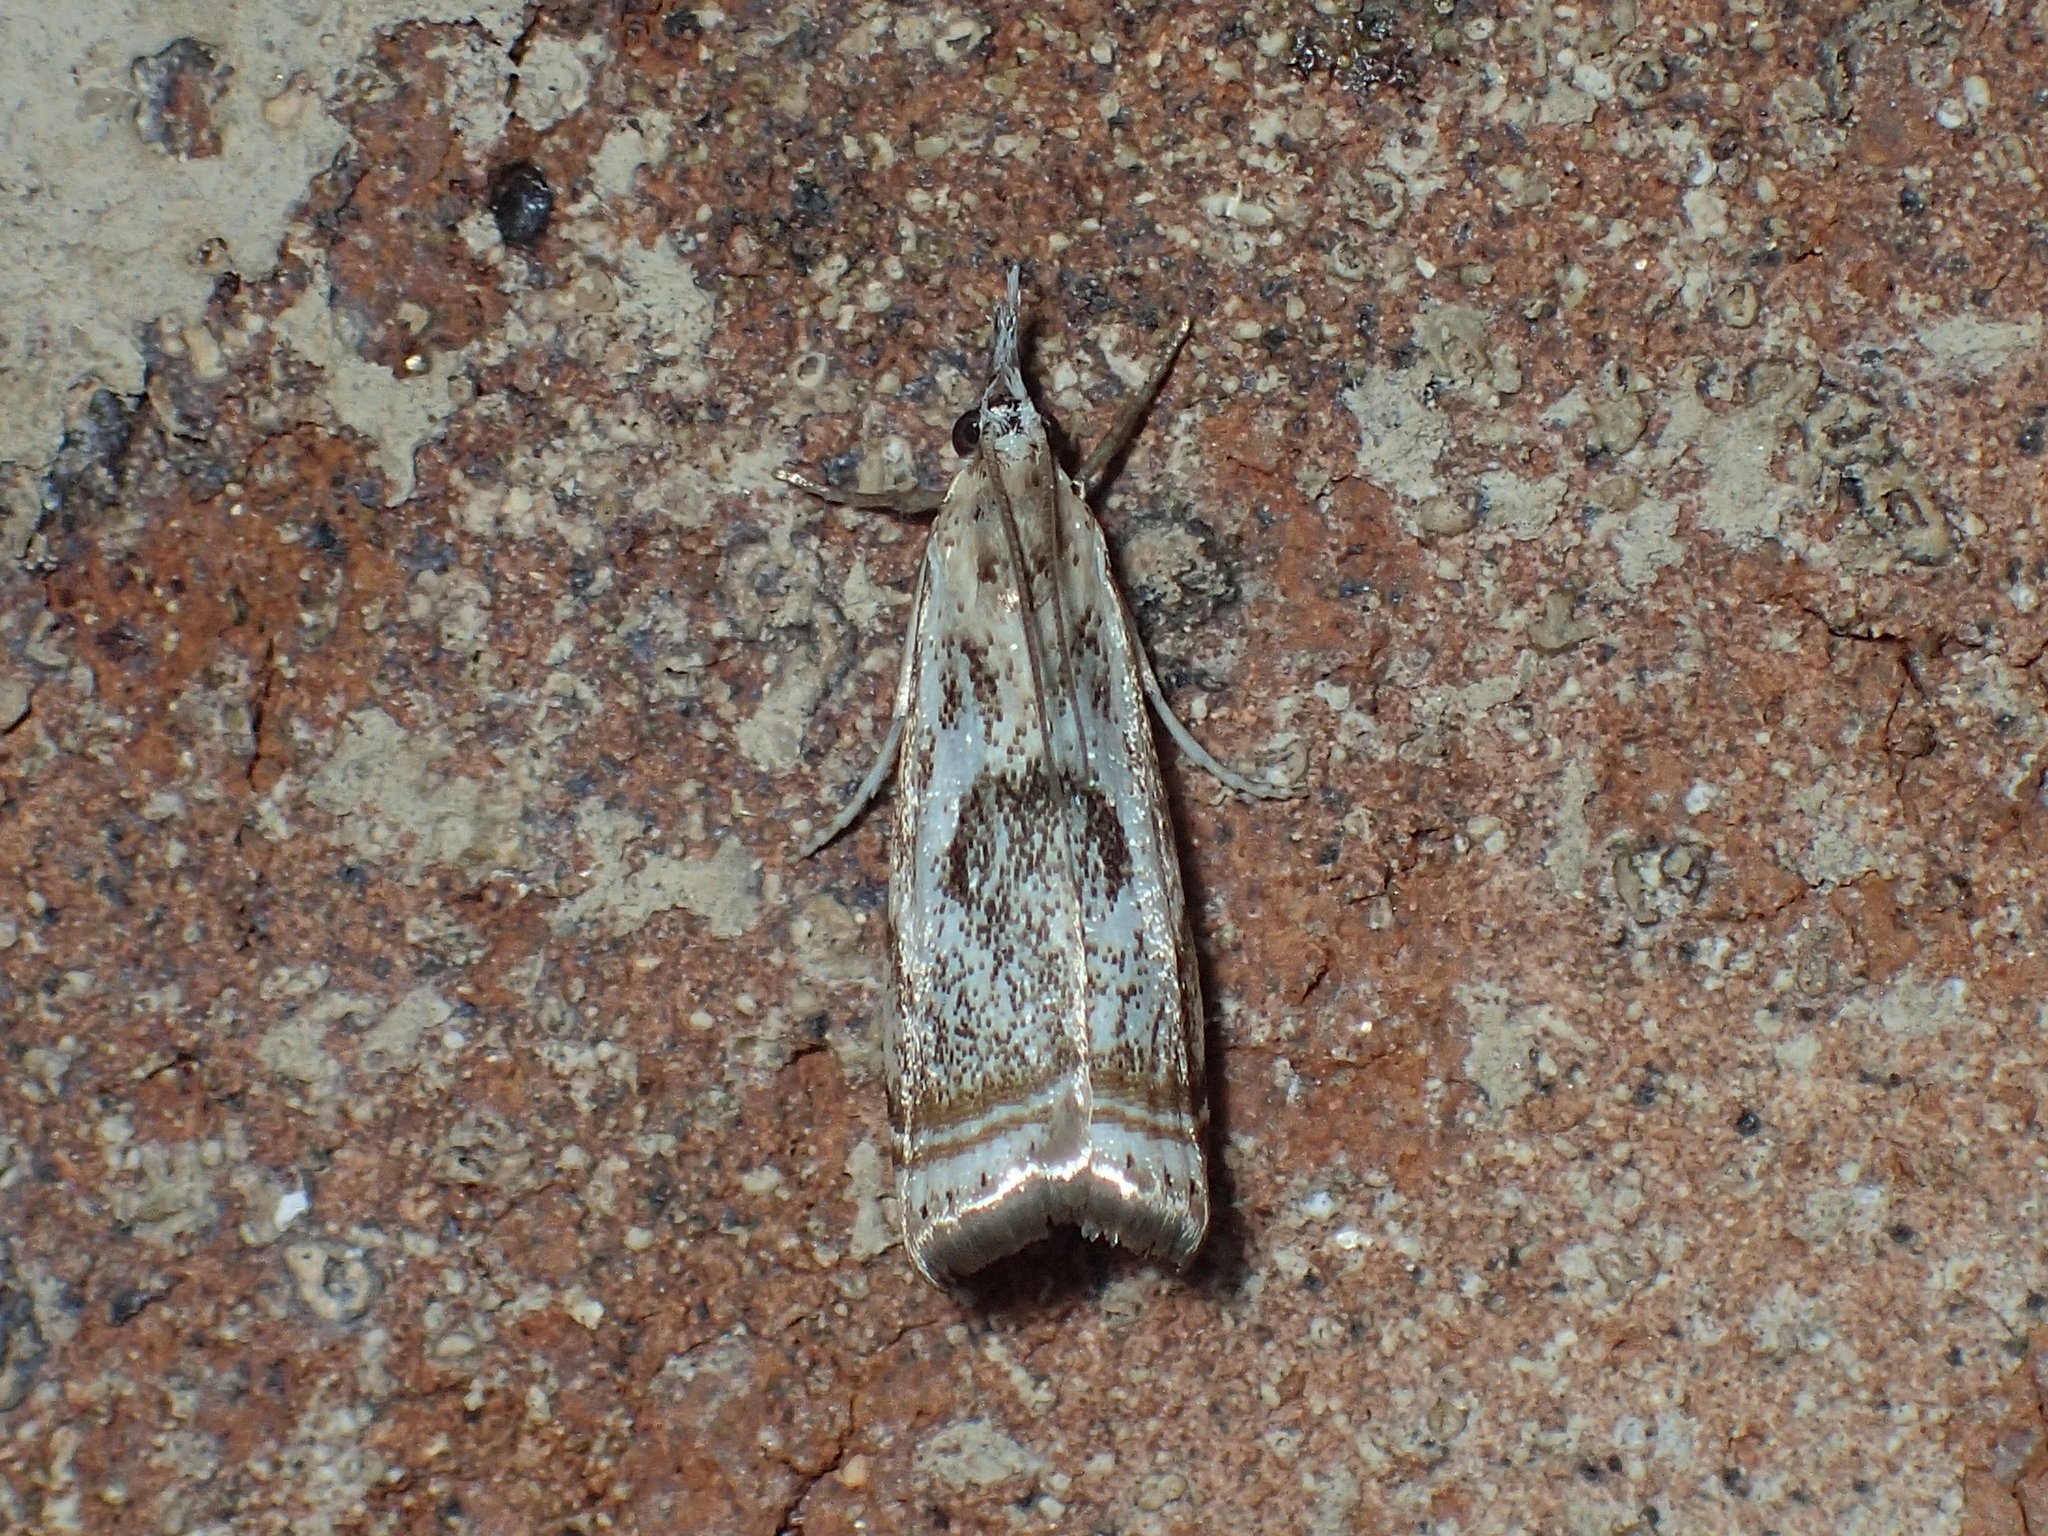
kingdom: Animalia
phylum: Arthropoda
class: Insecta
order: Lepidoptera
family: Crambidae
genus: Microcrambus
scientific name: Microcrambus elegans
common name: Elegant grass-veneer
